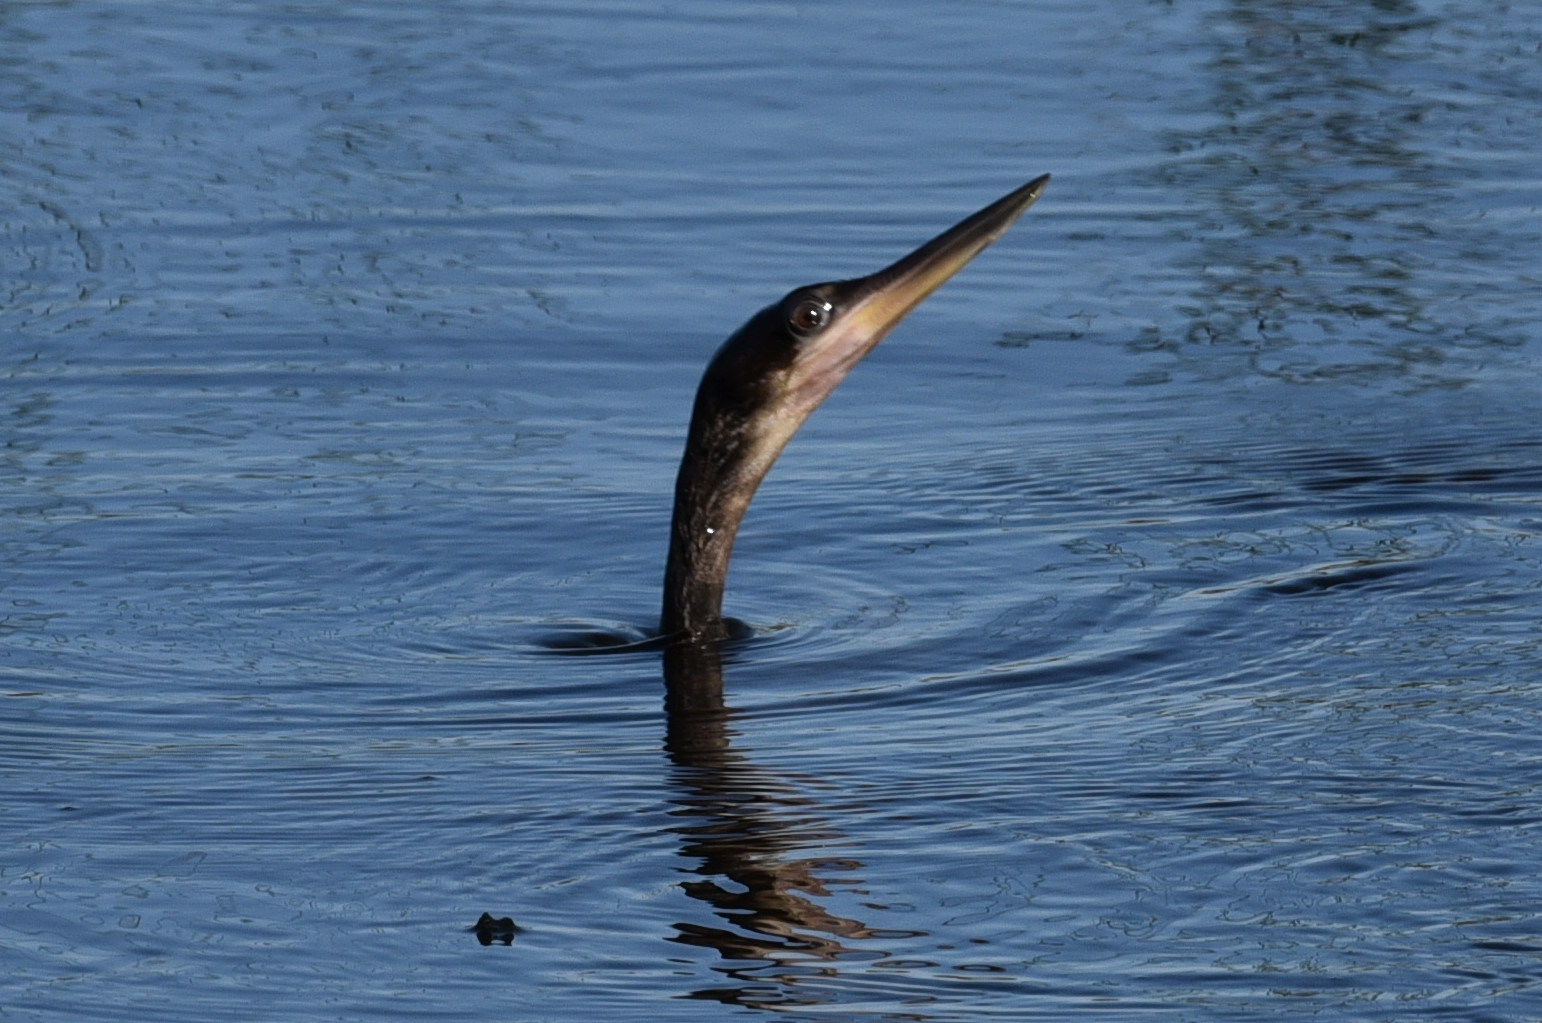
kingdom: Animalia
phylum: Chordata
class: Aves
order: Suliformes
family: Anhingidae
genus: Anhinga
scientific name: Anhinga anhinga
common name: Anhinga
